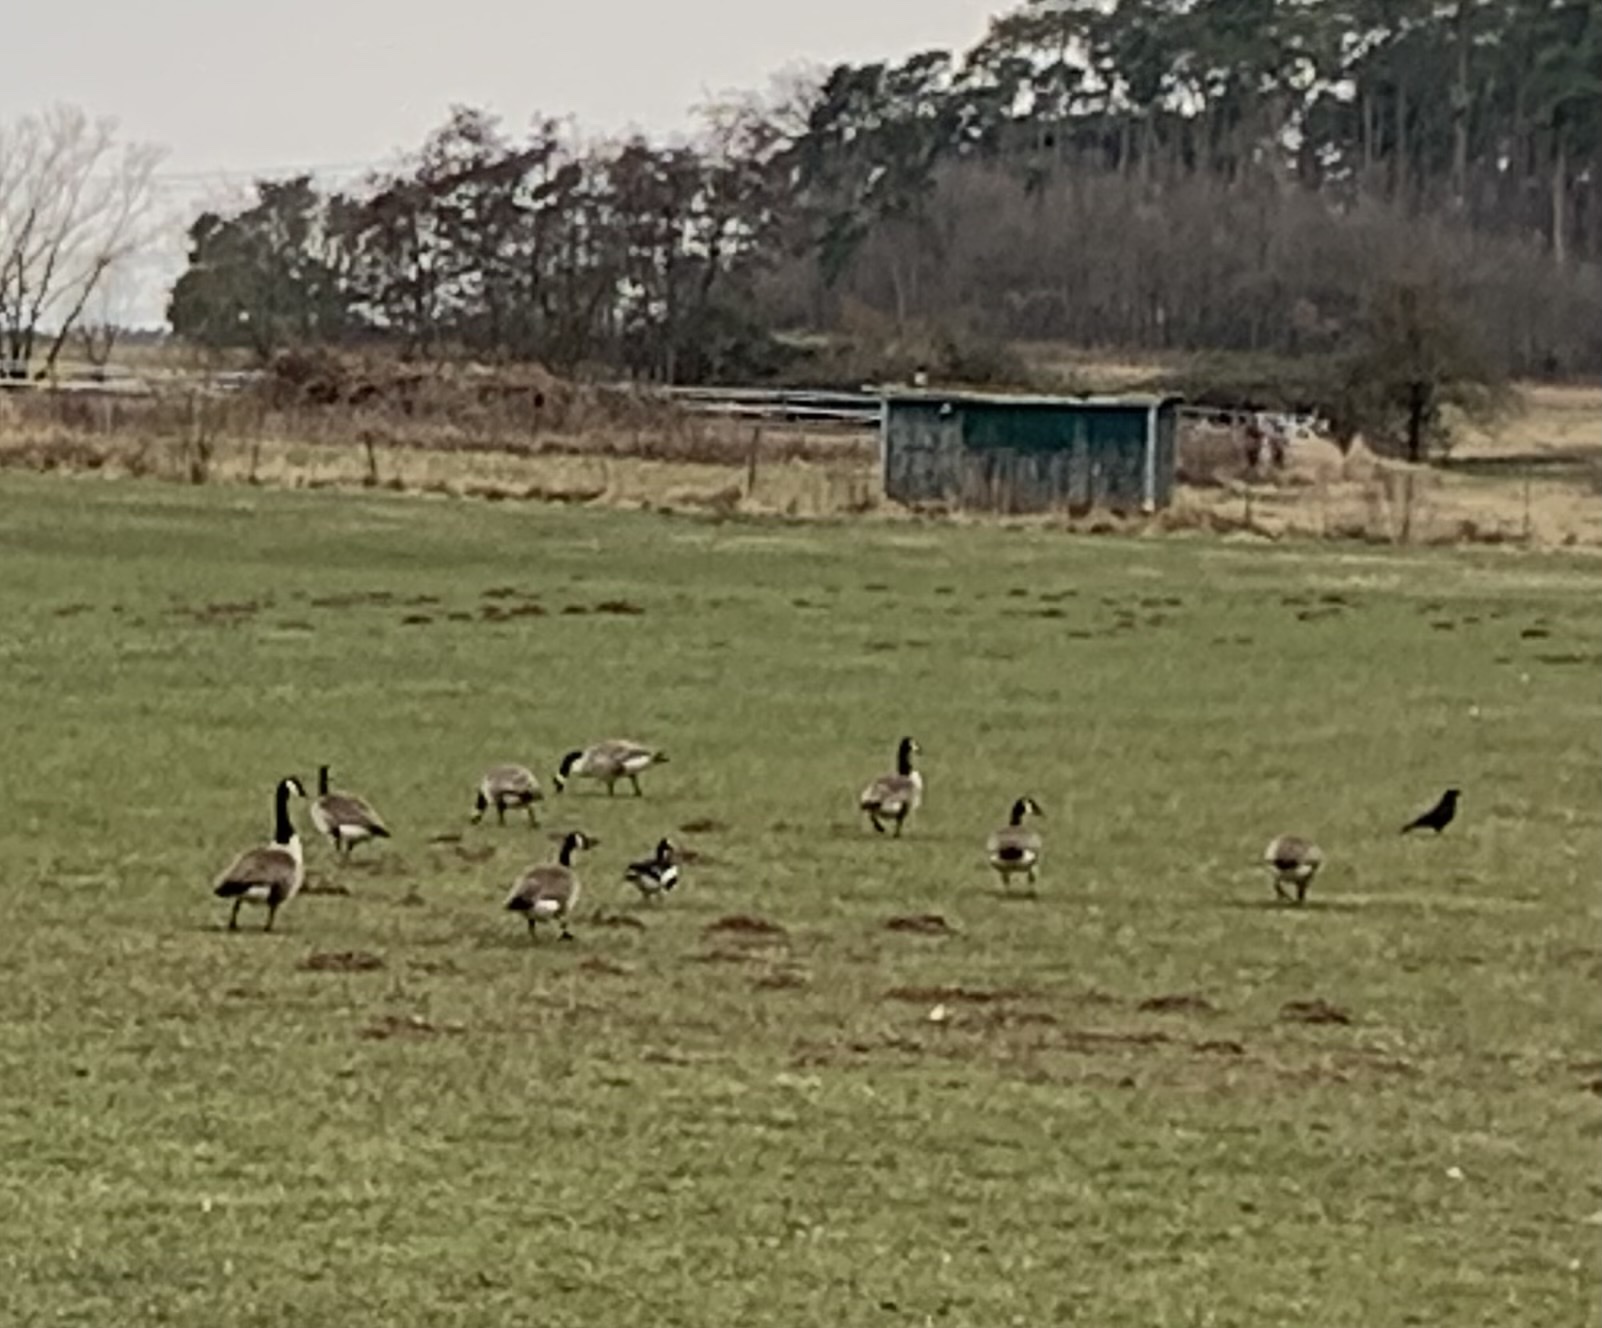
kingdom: Animalia
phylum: Chordata
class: Aves
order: Anseriformes
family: Anatidae
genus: Branta
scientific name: Branta canadensis
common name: Canada goose
